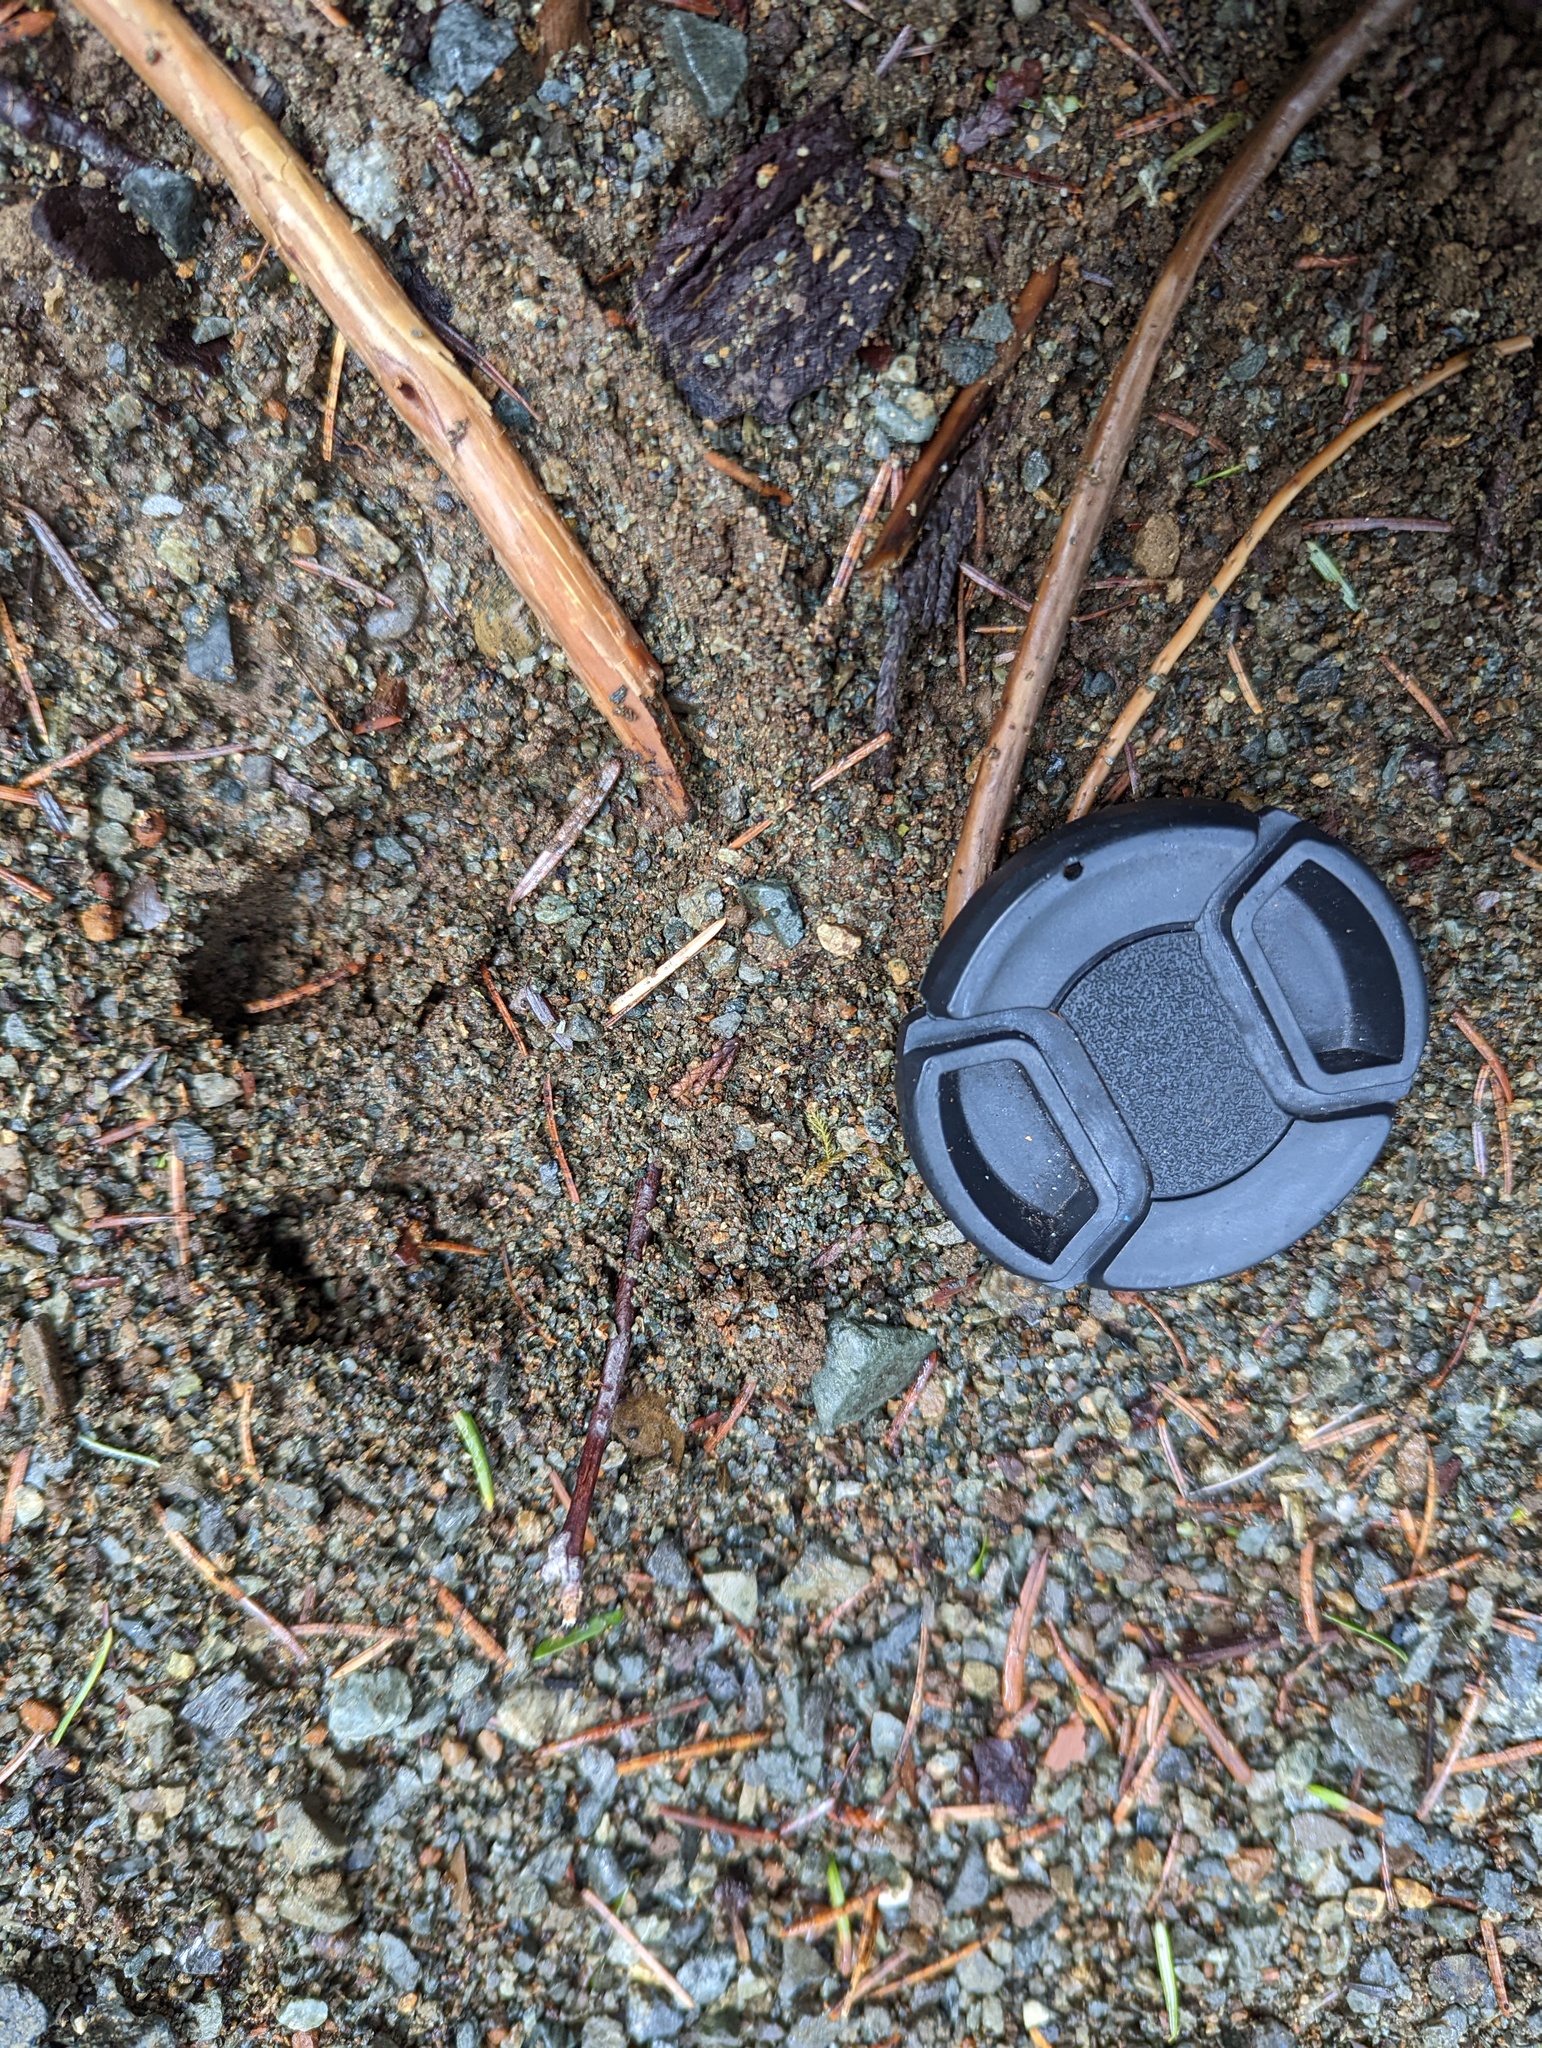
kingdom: Animalia
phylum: Chordata
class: Mammalia
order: Artiodactyla
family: Cervidae
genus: Odocoileus
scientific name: Odocoileus hemionus
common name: Mule deer
